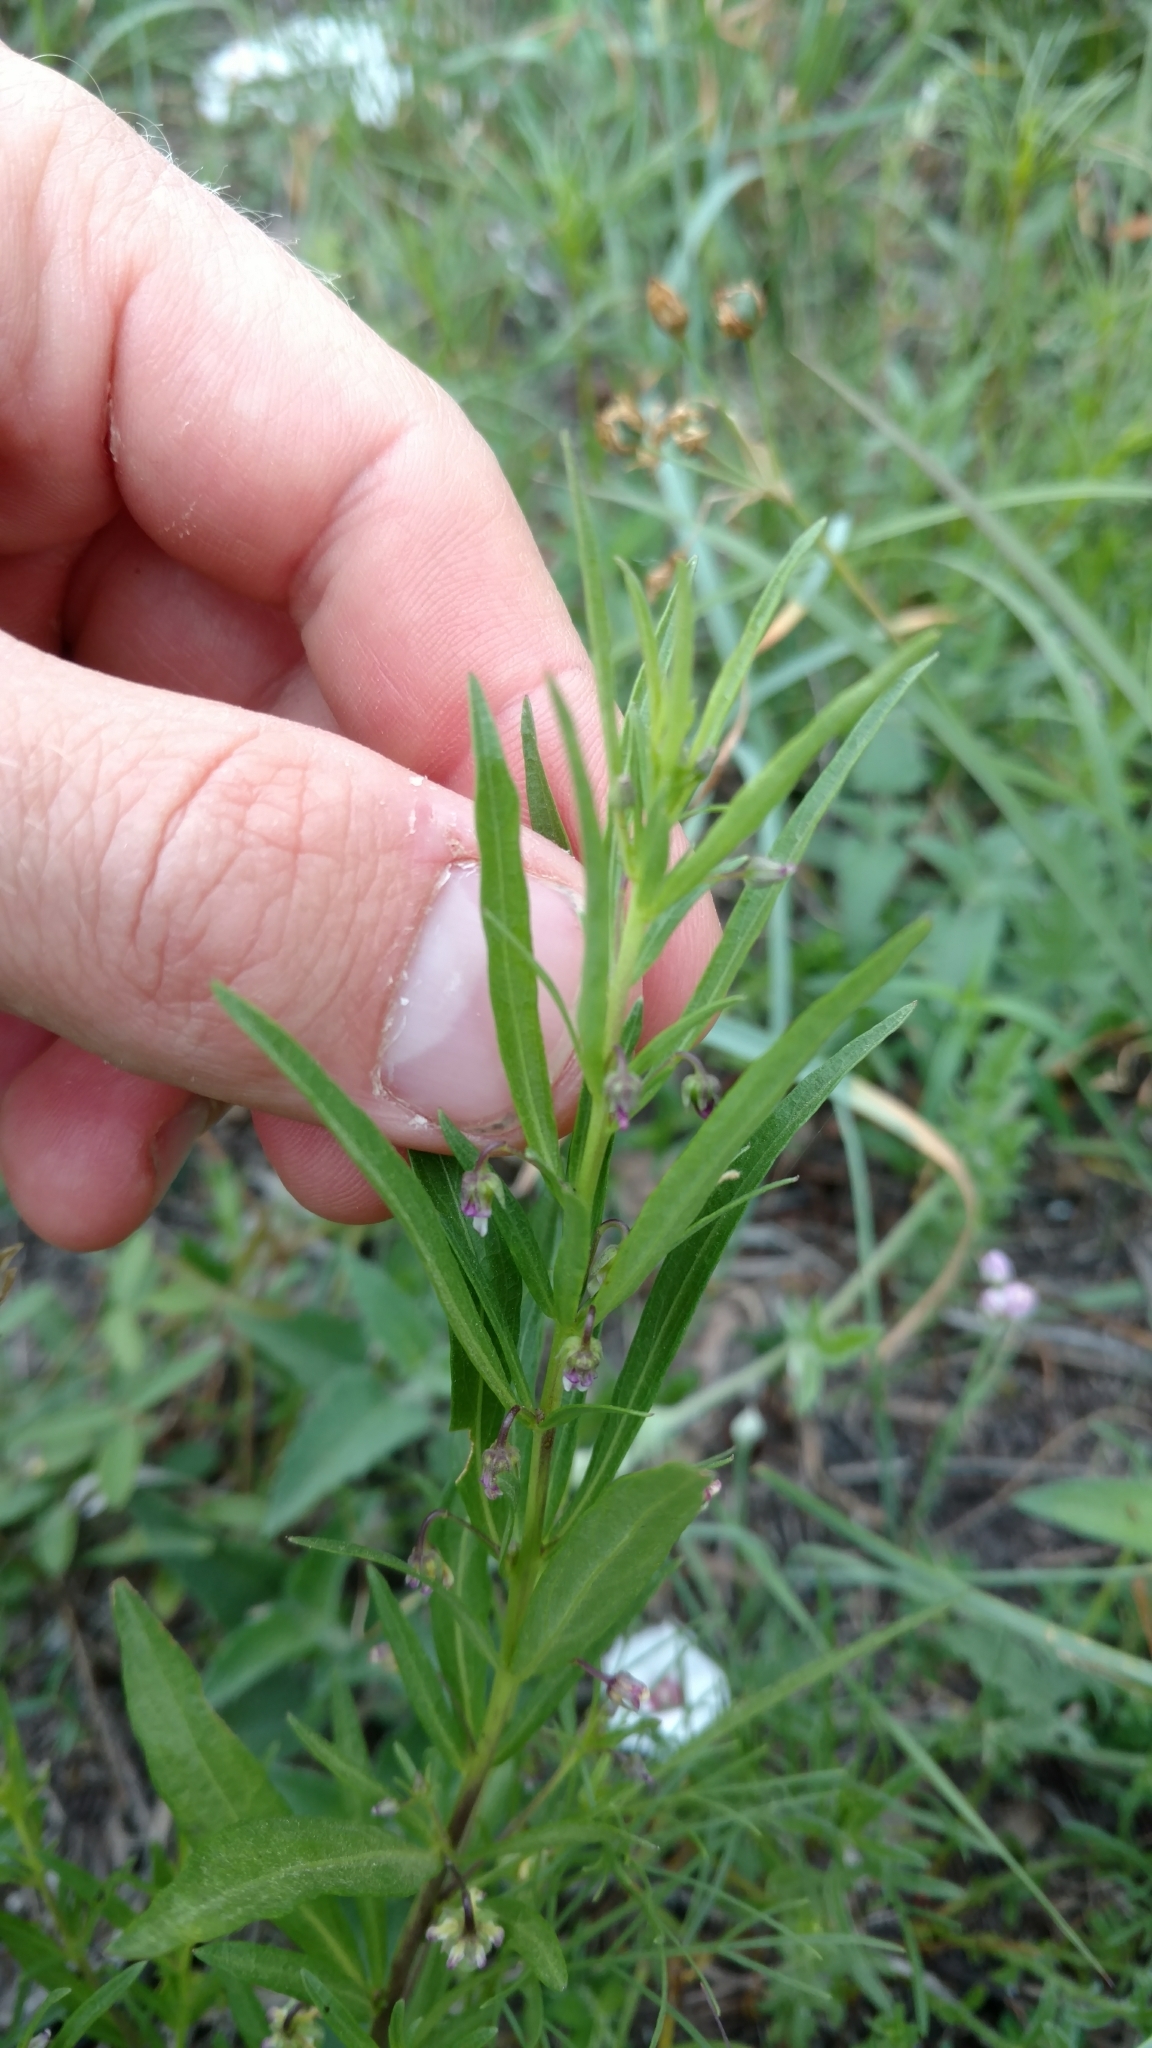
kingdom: Plantae
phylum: Tracheophyta
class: Magnoliopsida
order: Malpighiales
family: Violaceae
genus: Pombalia
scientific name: Pombalia verticillata
